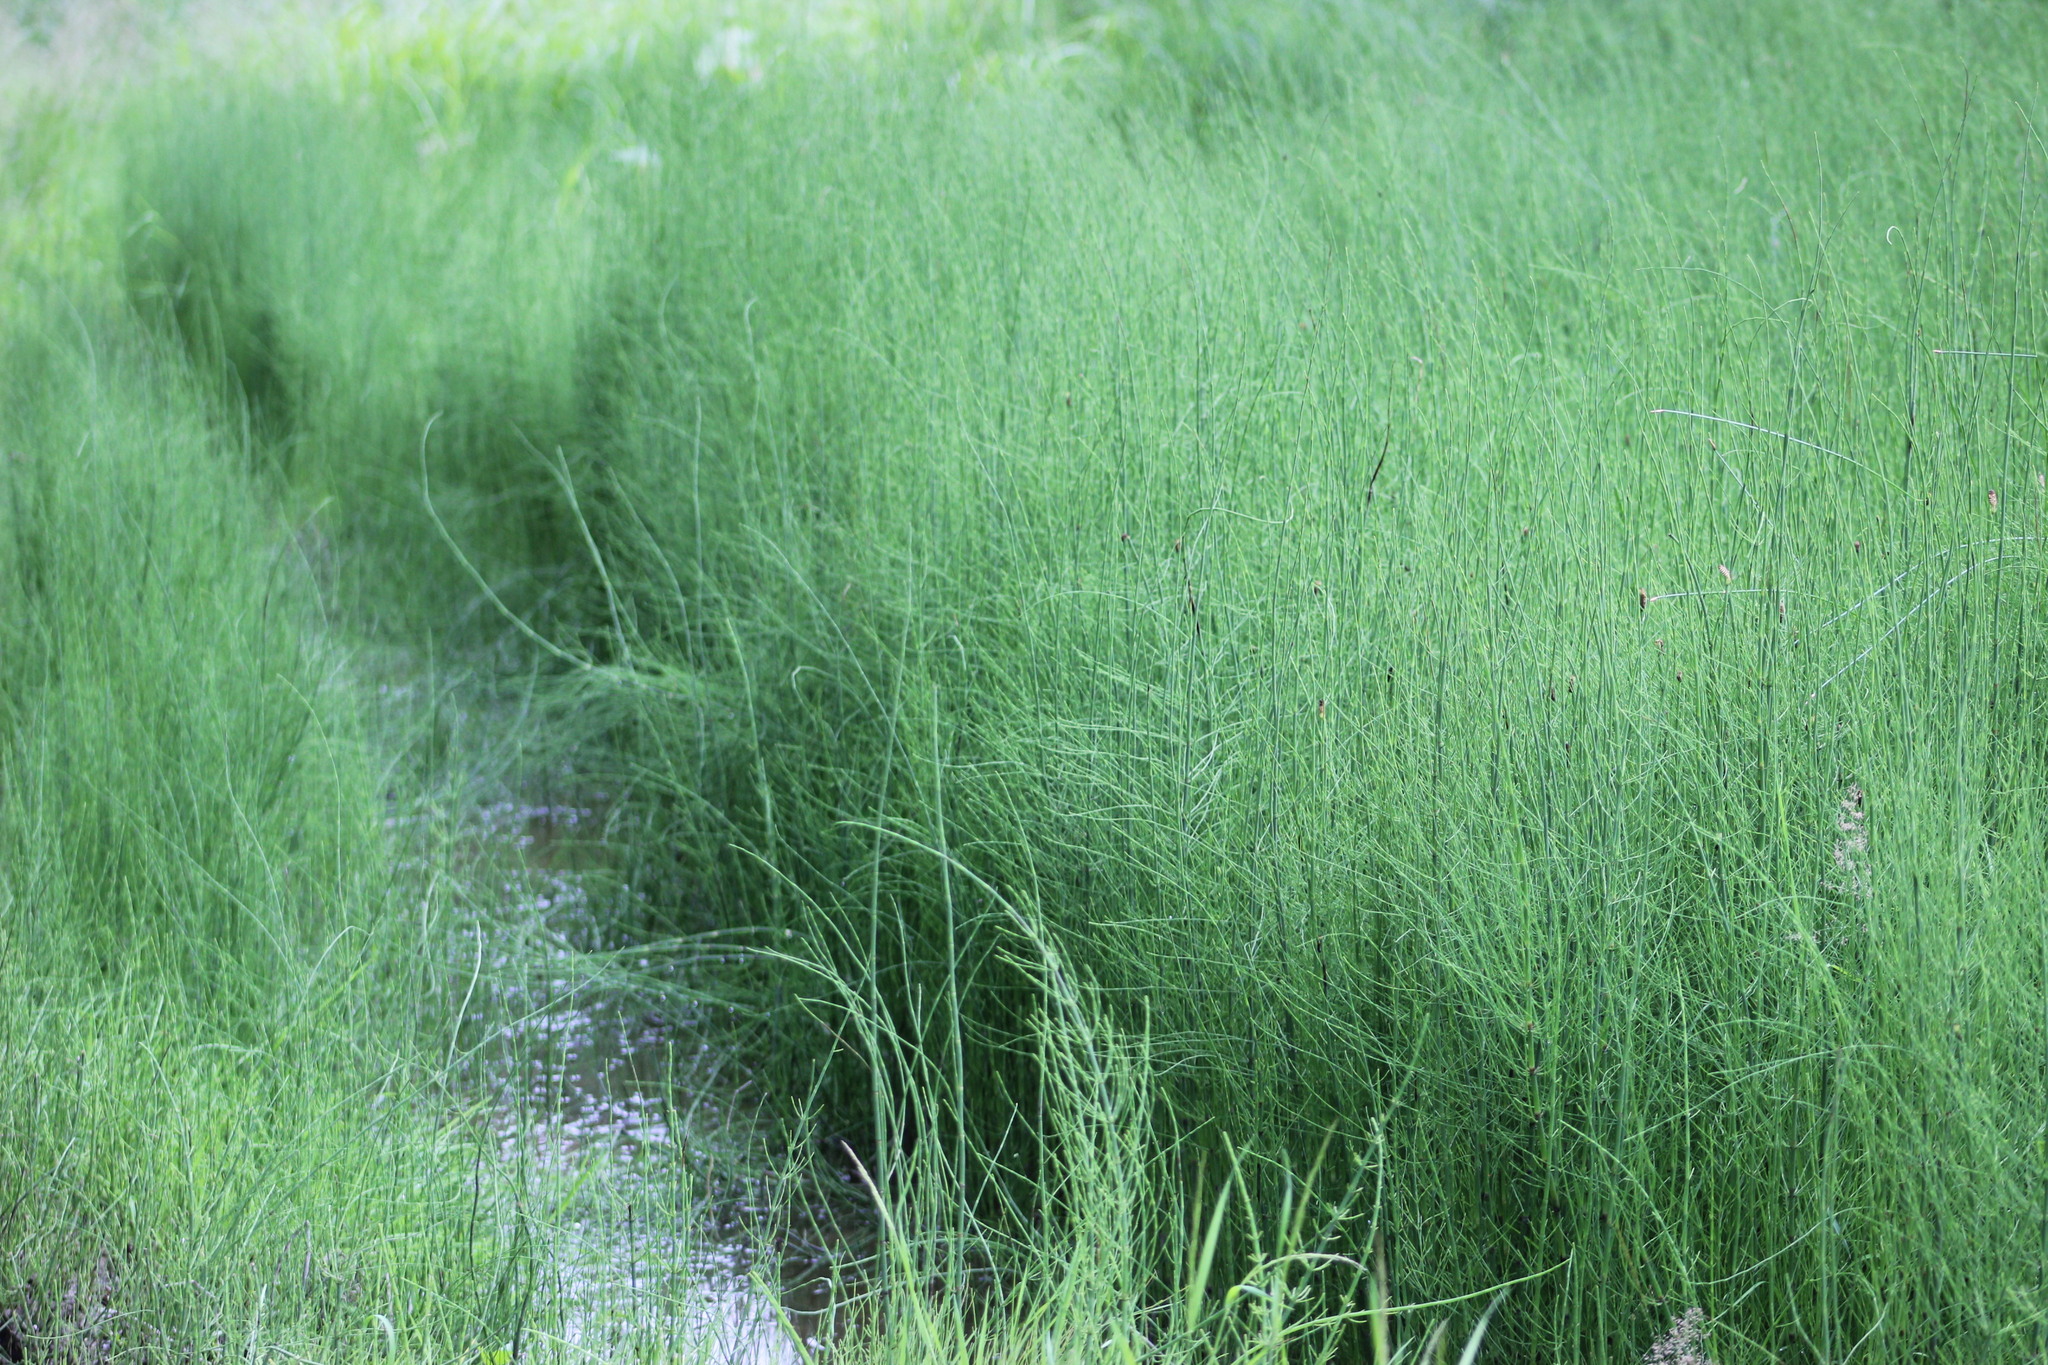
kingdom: Plantae
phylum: Tracheophyta
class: Polypodiopsida
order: Equisetales
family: Equisetaceae
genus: Equisetum
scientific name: Equisetum fluviatile
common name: Water horsetail
